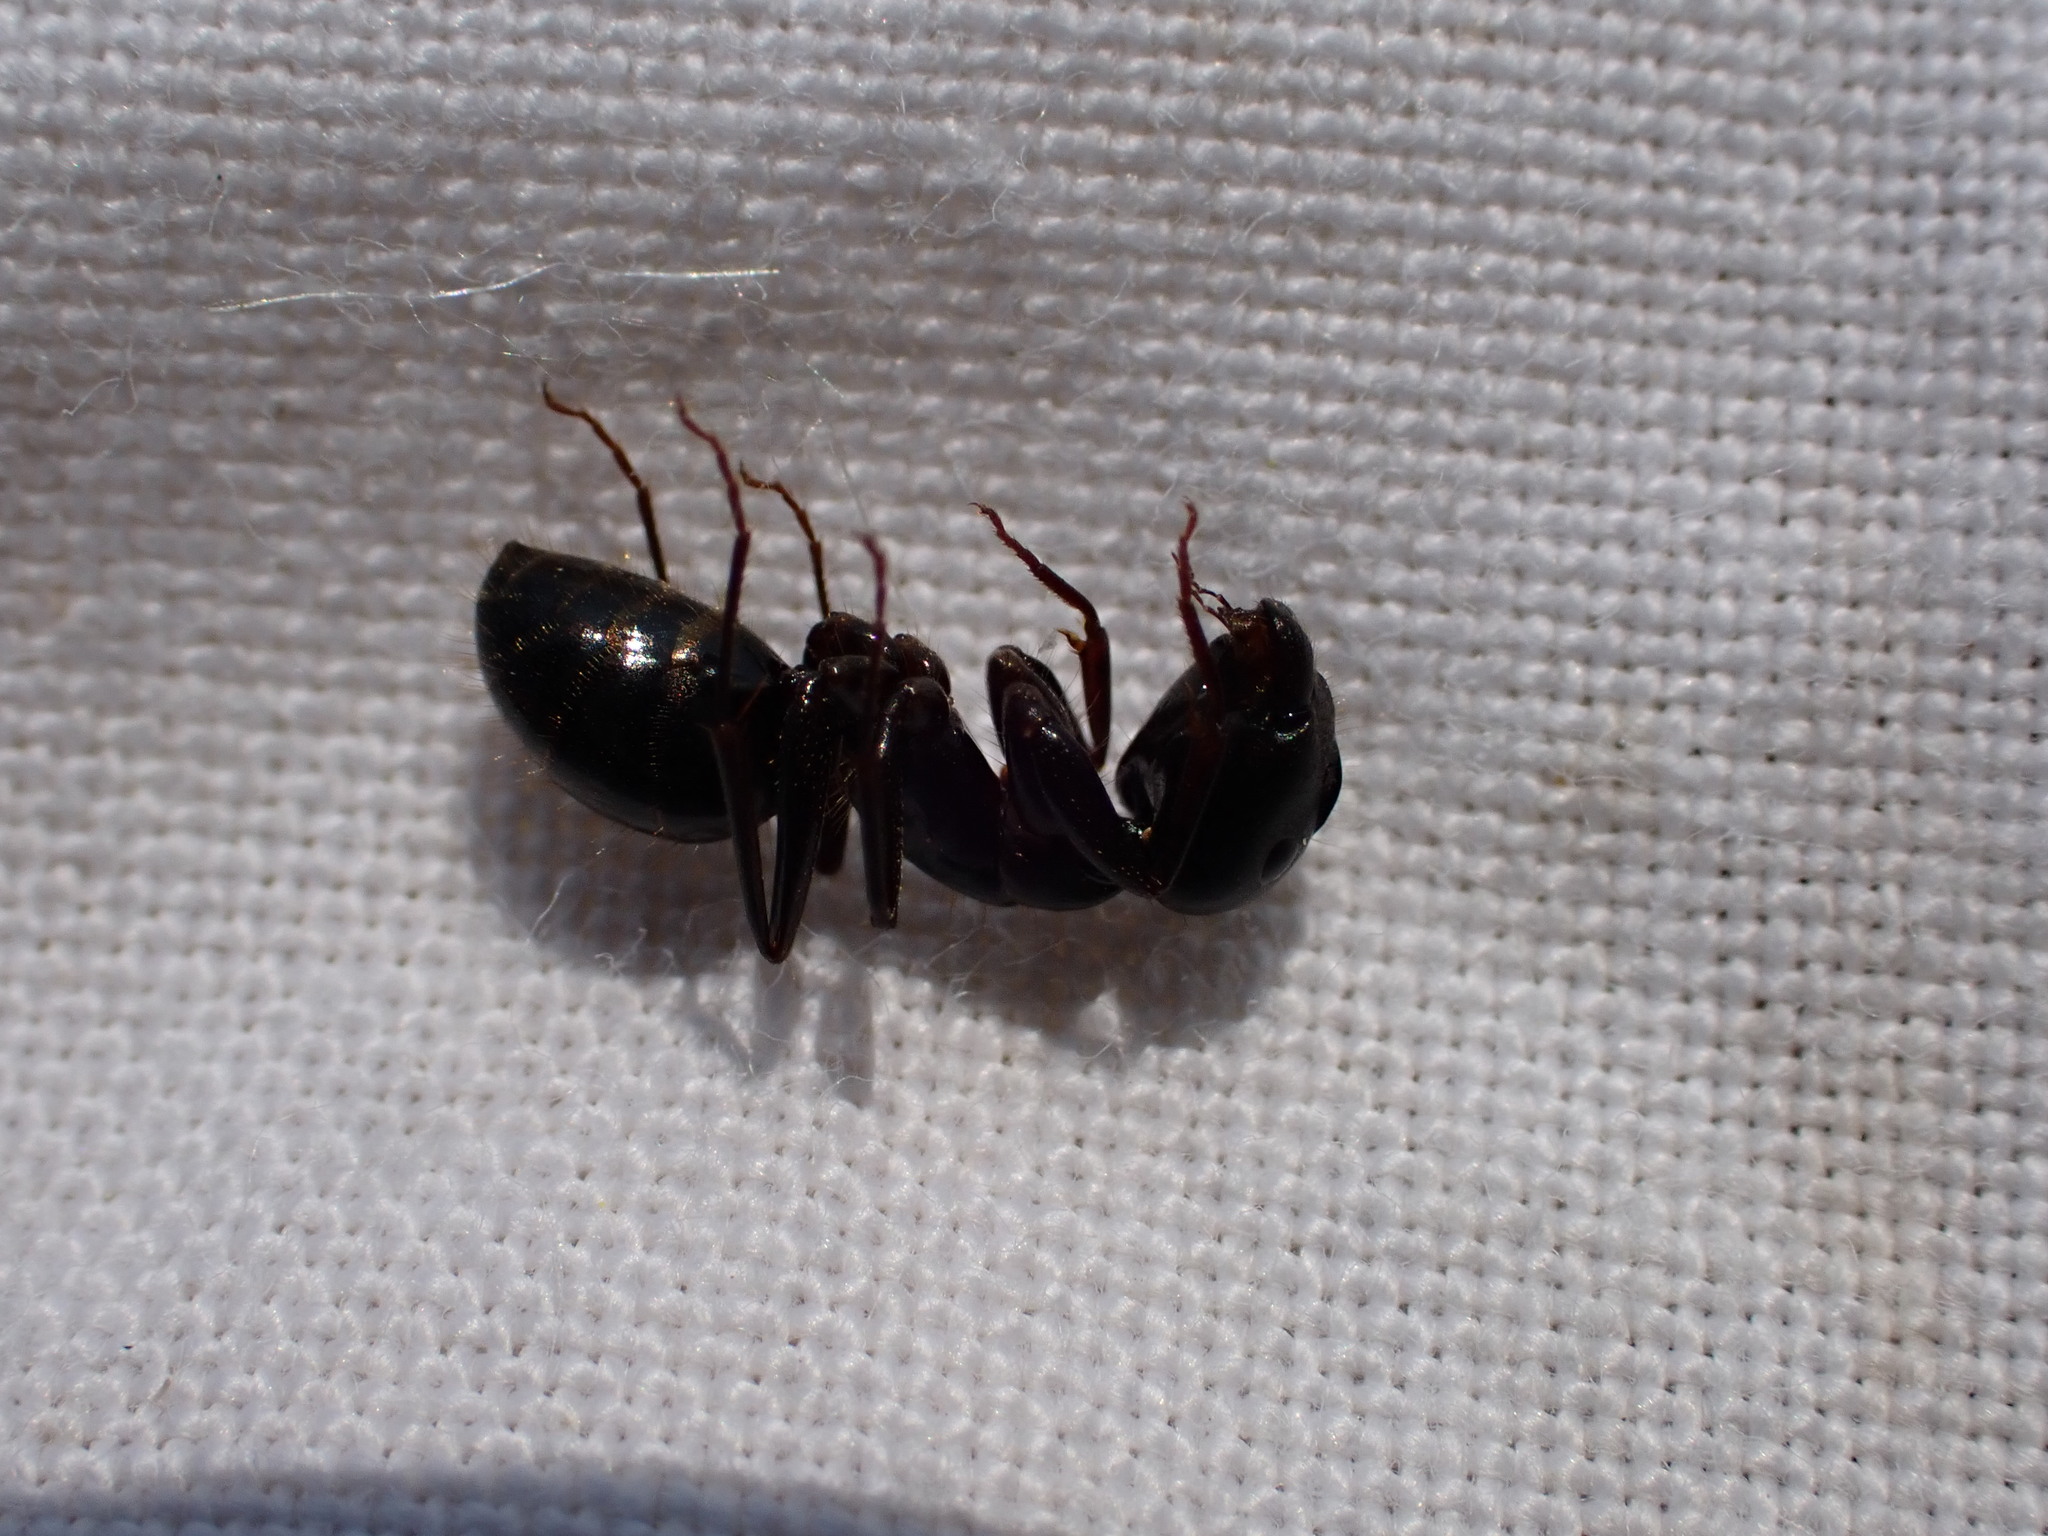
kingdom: Animalia
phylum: Arthropoda
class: Insecta
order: Hymenoptera
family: Formicidae
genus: Camponotus
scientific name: Camponotus aethiops
